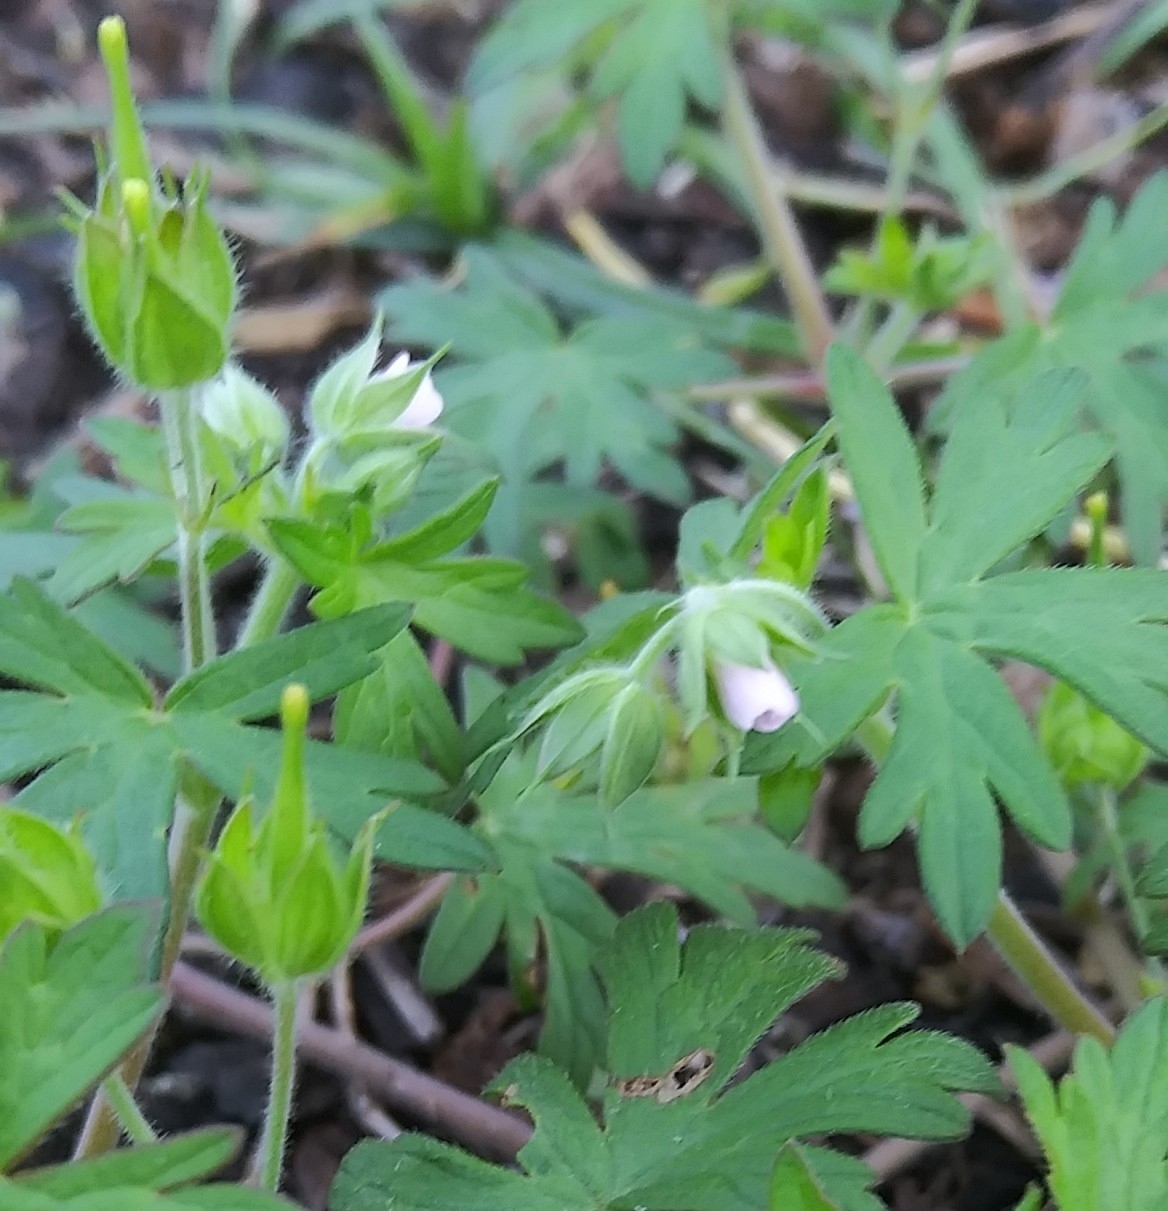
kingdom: Plantae
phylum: Tracheophyta
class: Magnoliopsida
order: Geraniales
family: Geraniaceae
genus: Geranium
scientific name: Geranium carolinianum
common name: Carolina crane's-bill
